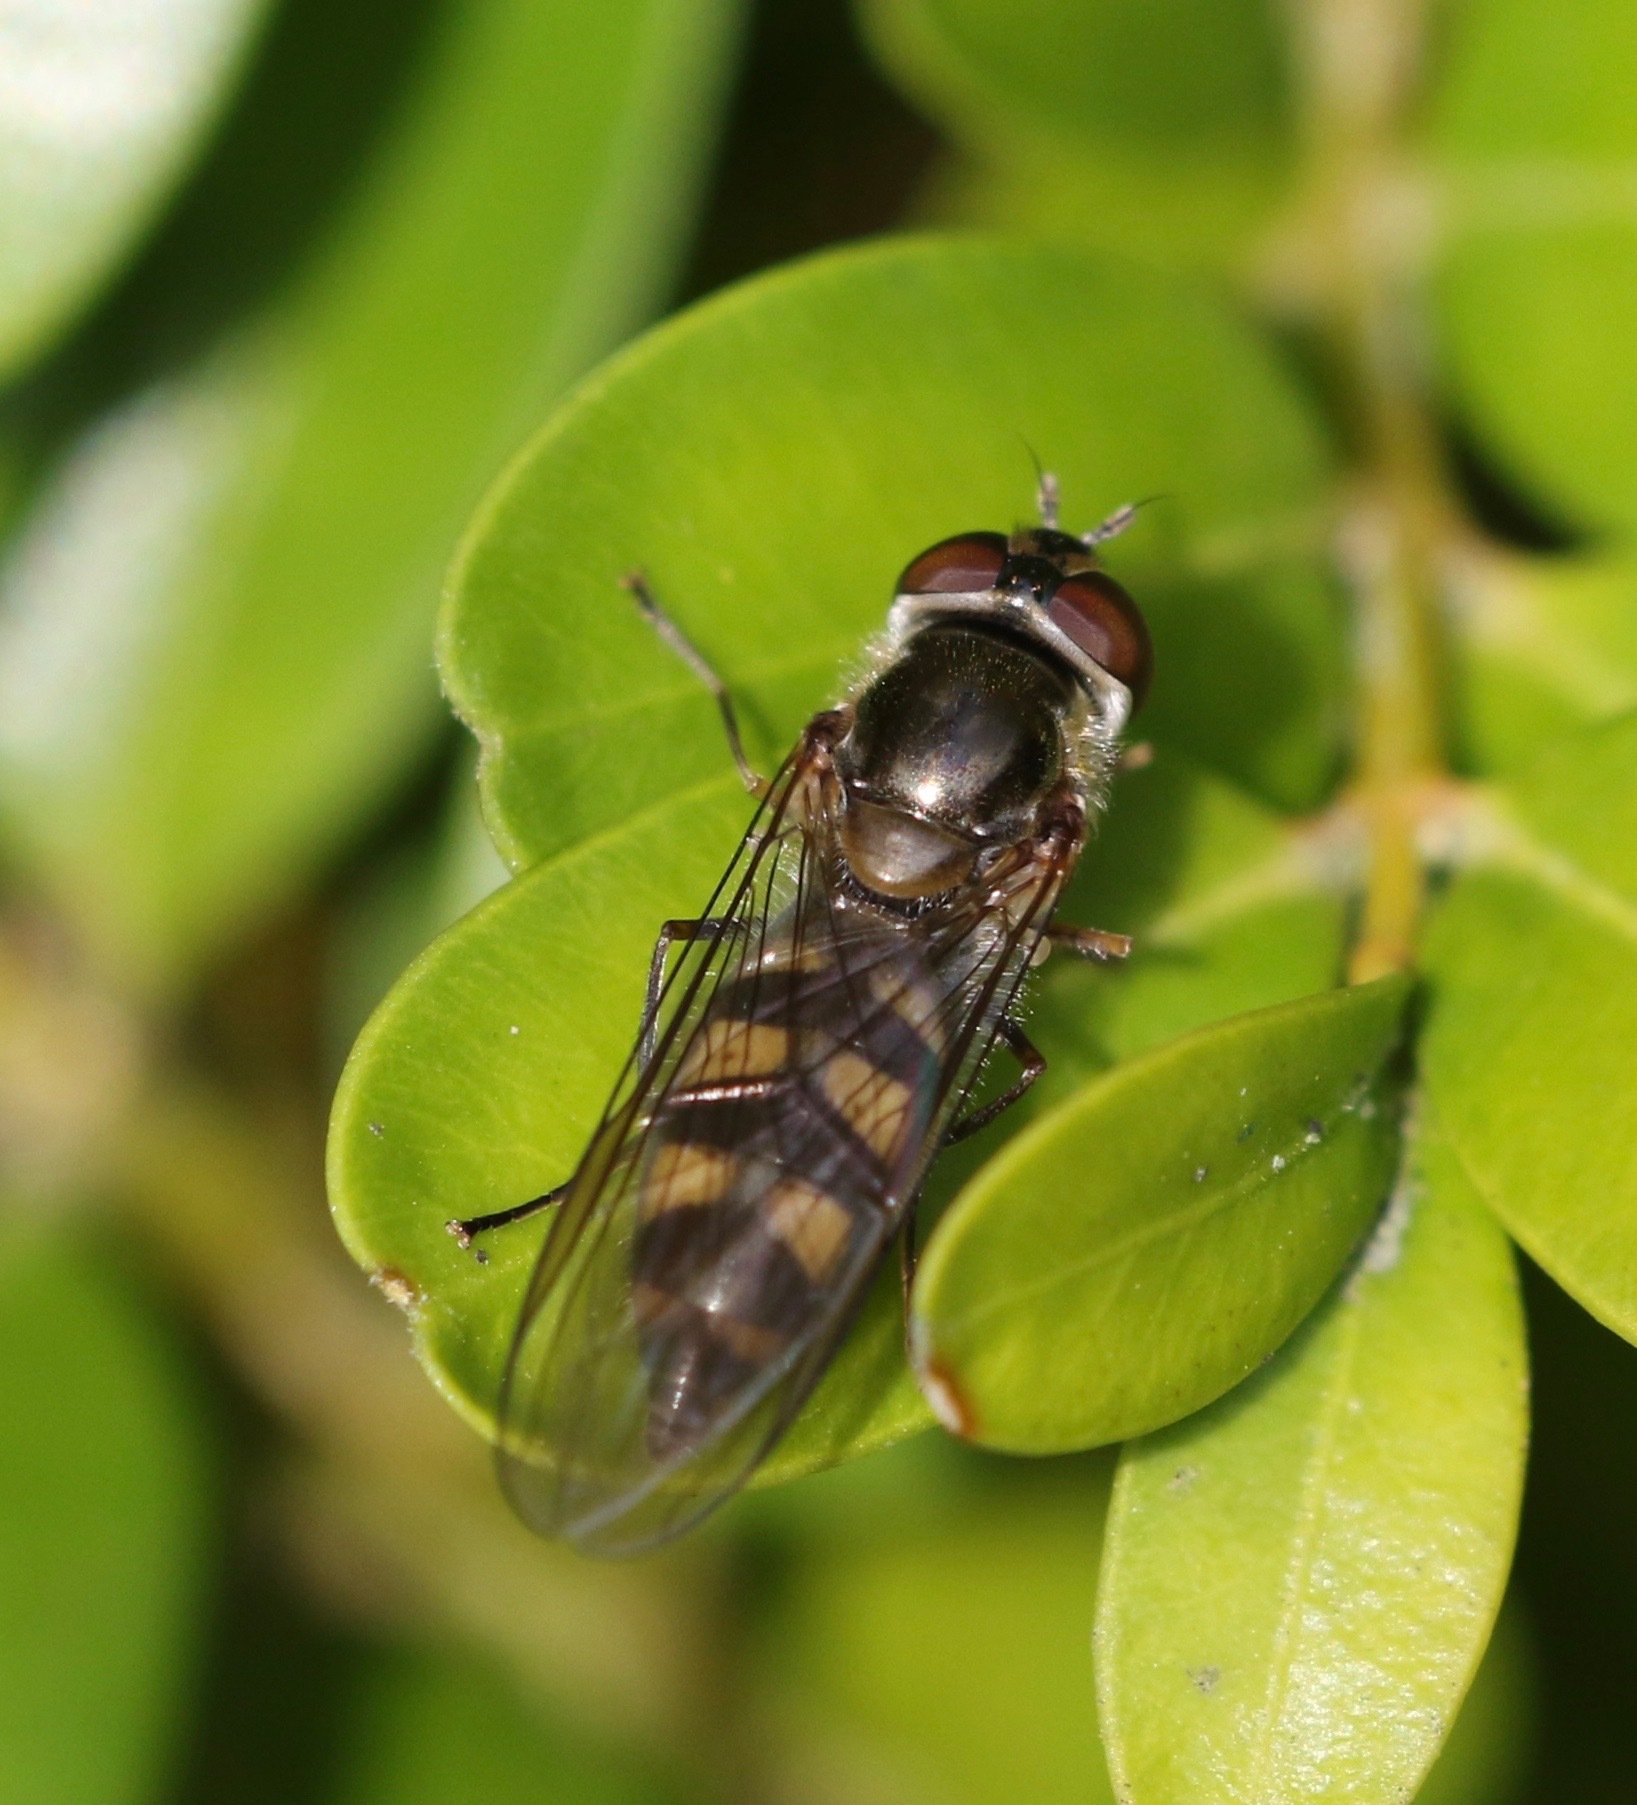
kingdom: Animalia
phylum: Arthropoda
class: Insecta
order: Diptera
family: Syrphidae
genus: Meliscaeva
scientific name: Meliscaeva auricollis
